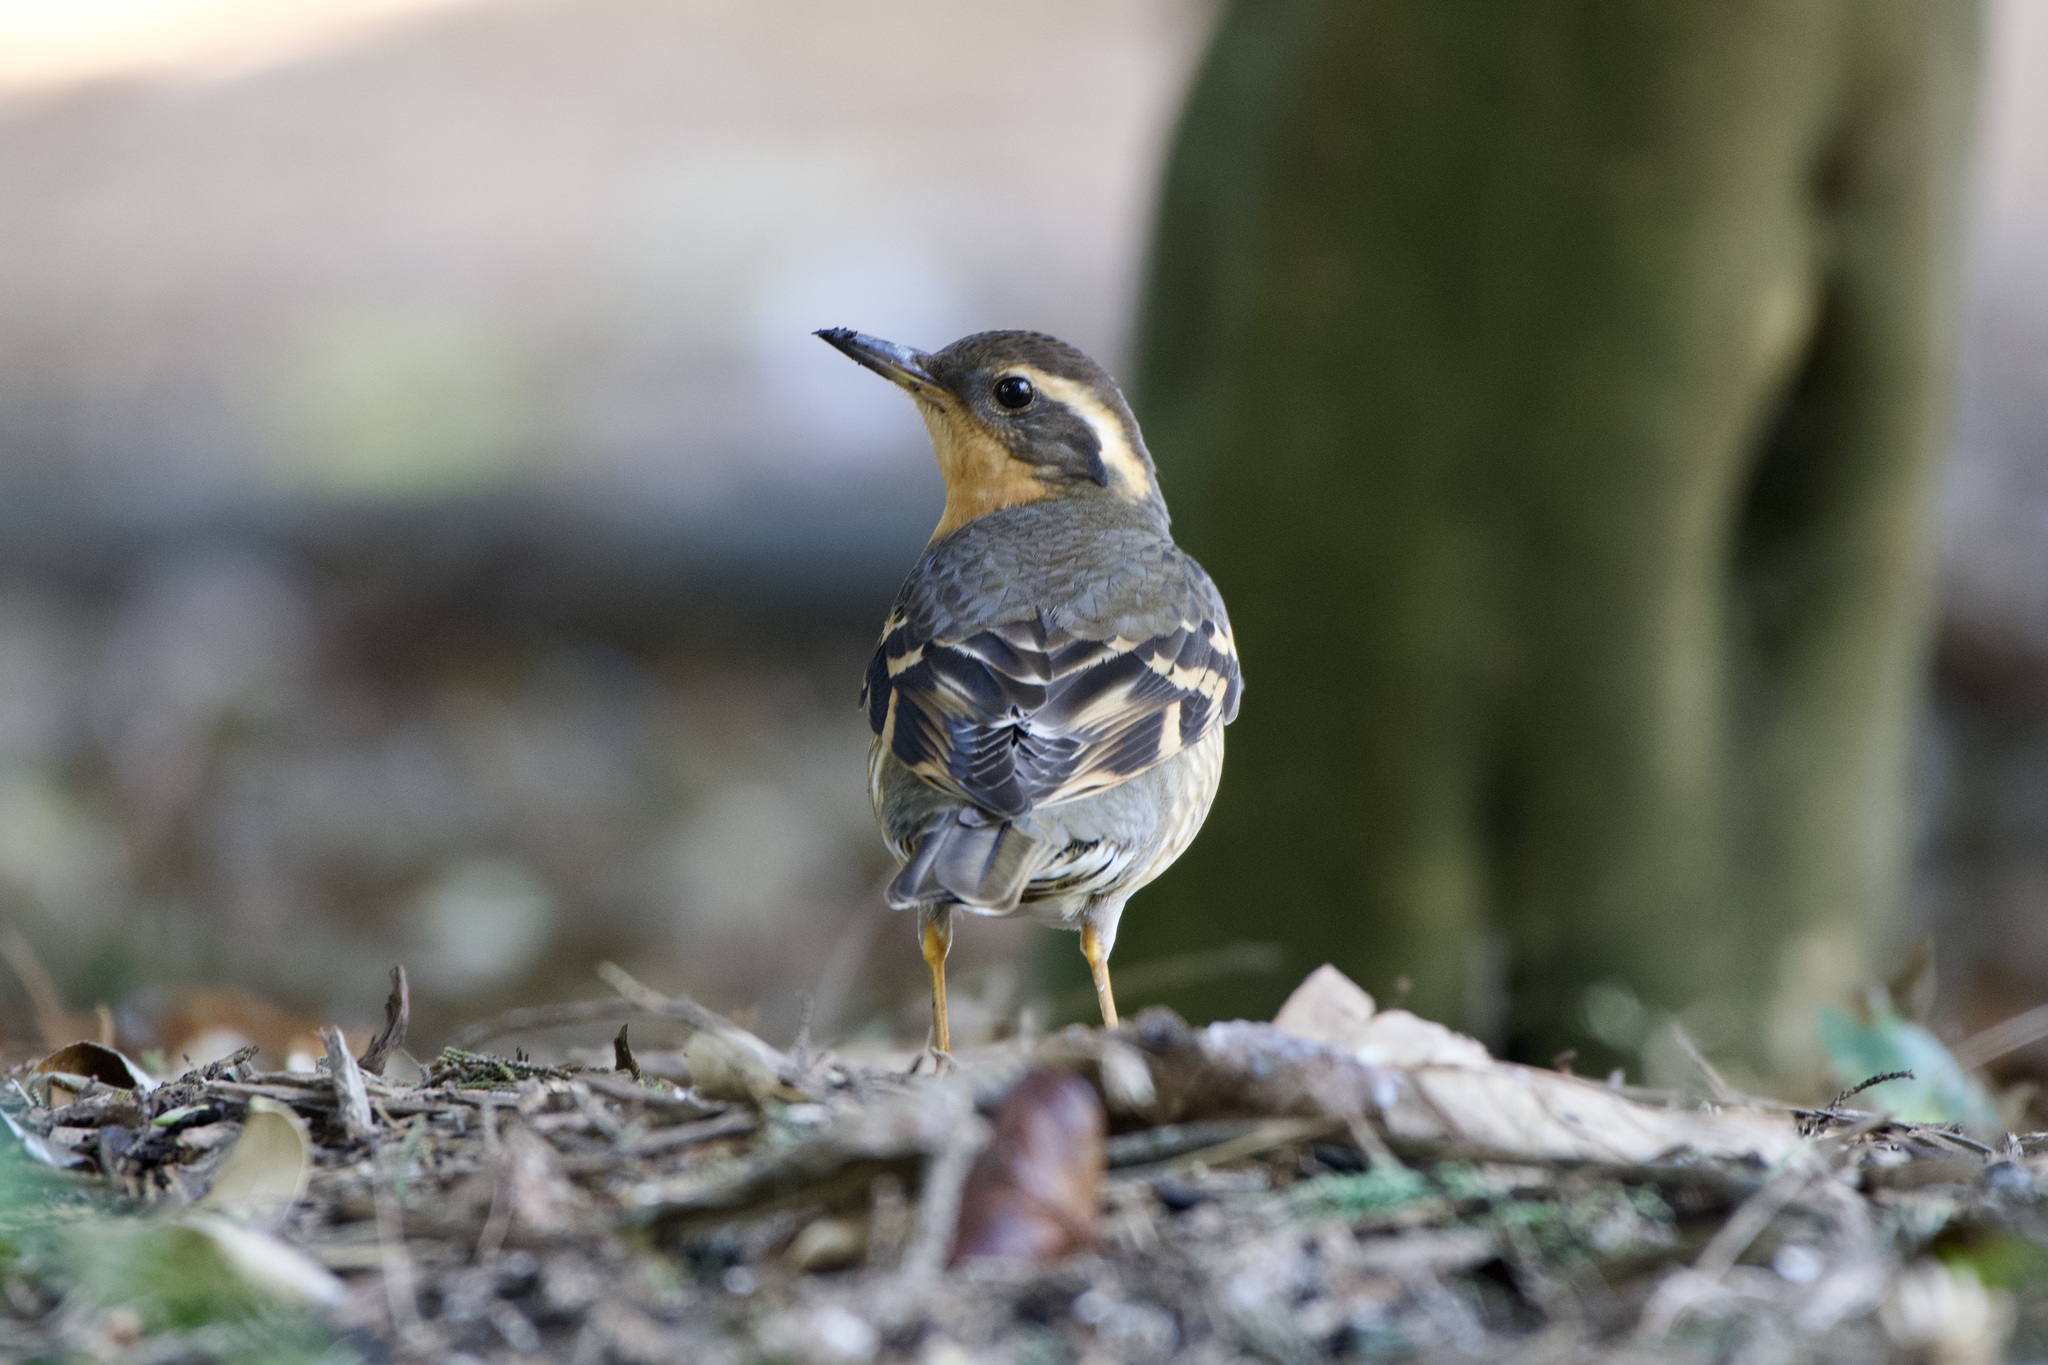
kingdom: Animalia
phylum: Chordata
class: Aves
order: Passeriformes
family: Turdidae
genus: Ixoreus
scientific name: Ixoreus naevius
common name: Varied thrush
